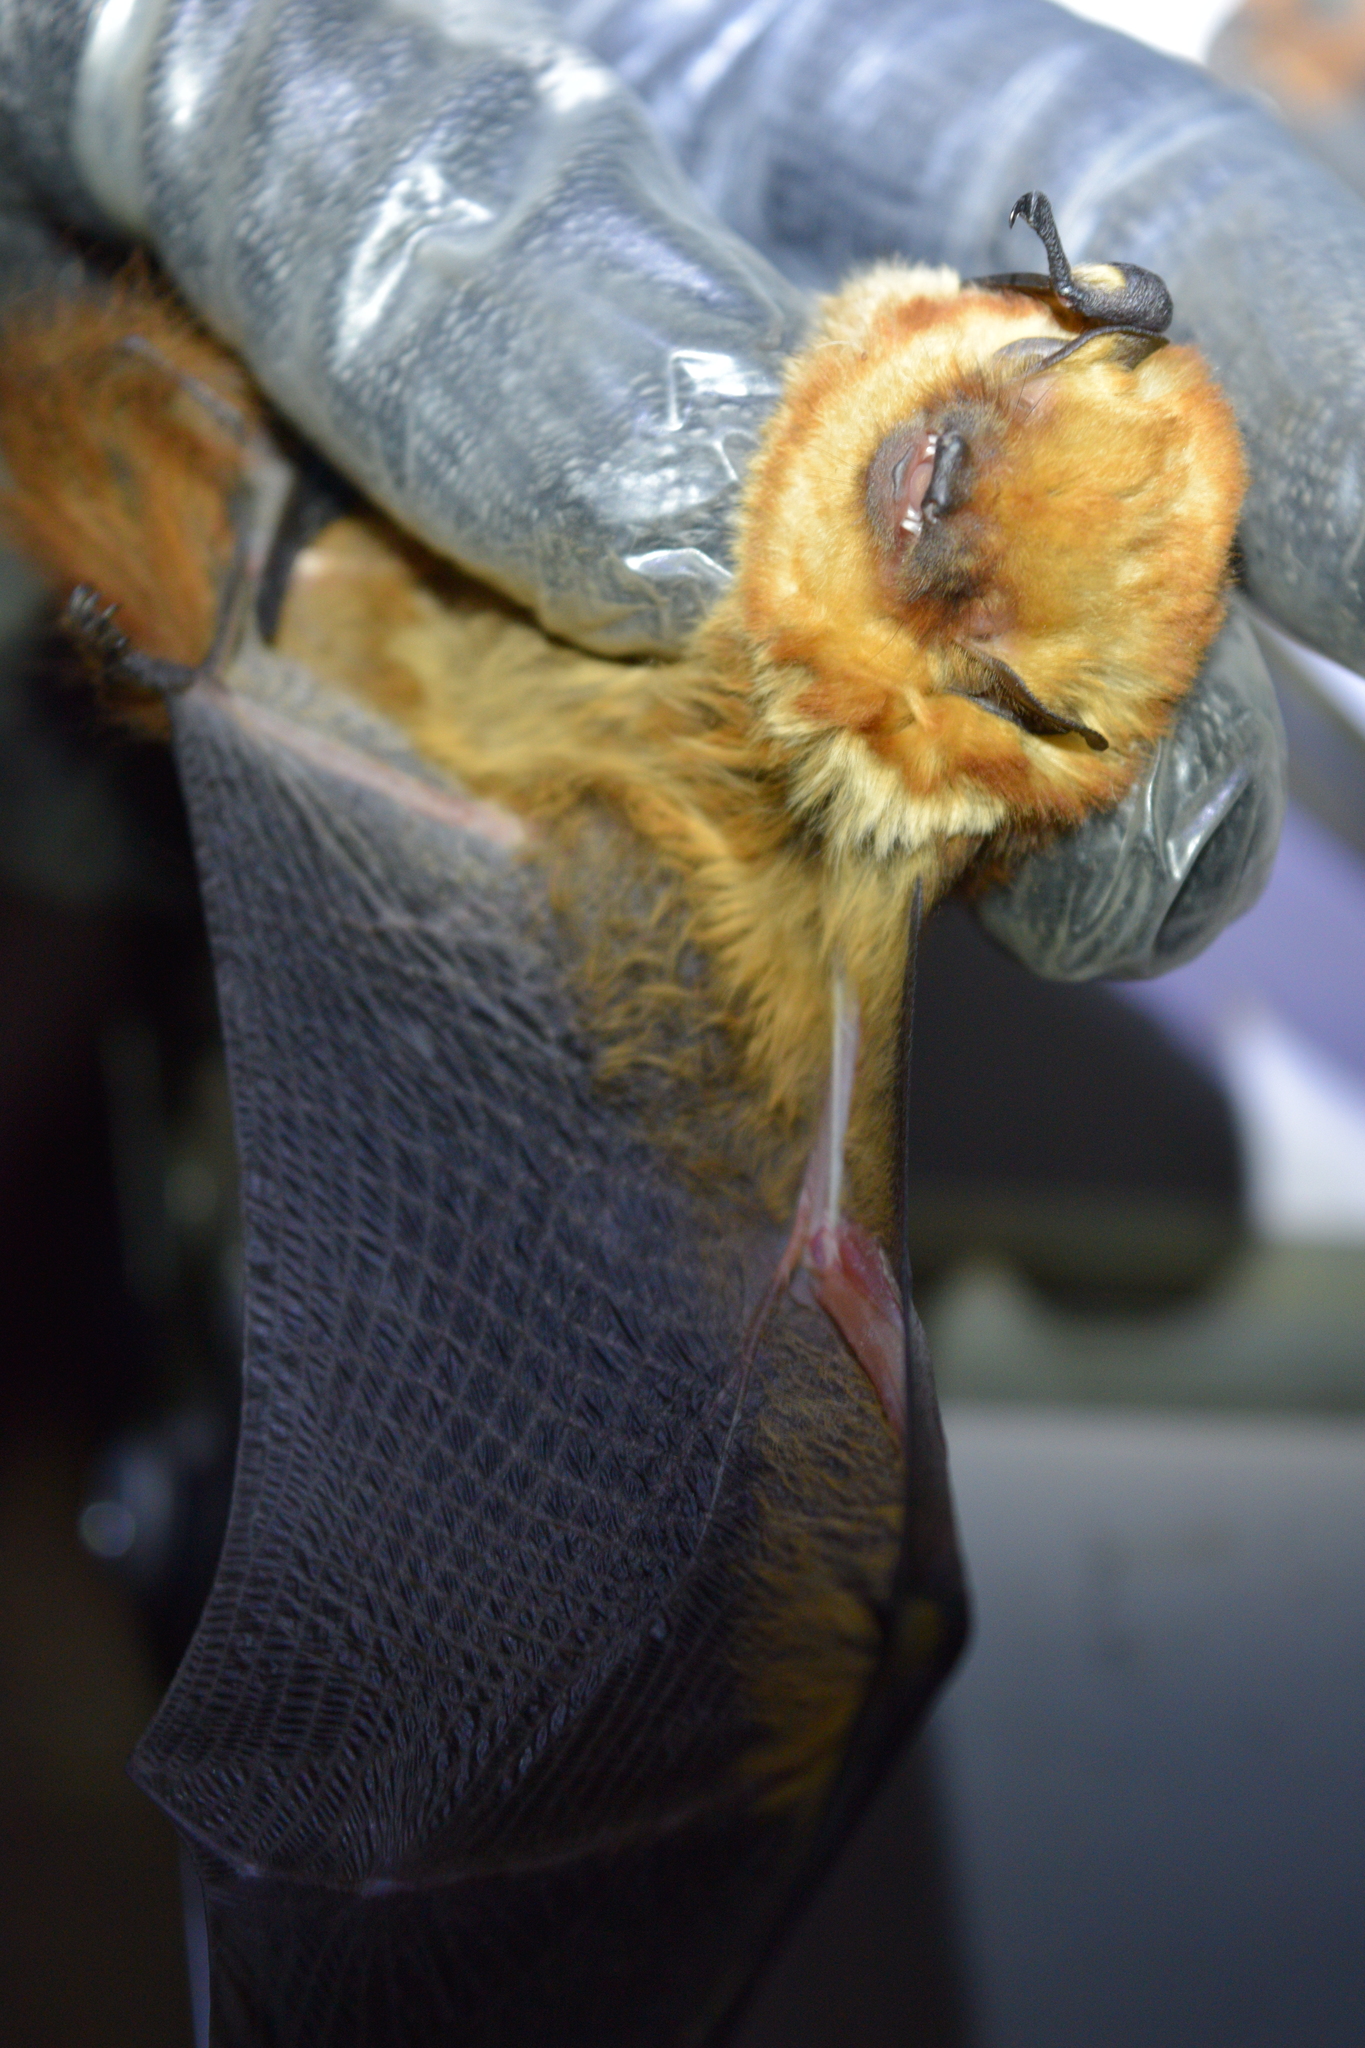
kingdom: Animalia
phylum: Chordata
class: Mammalia
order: Chiroptera
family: Vespertilionidae
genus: Lasiurus
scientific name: Lasiurus varius
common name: Cinnamon red bat
